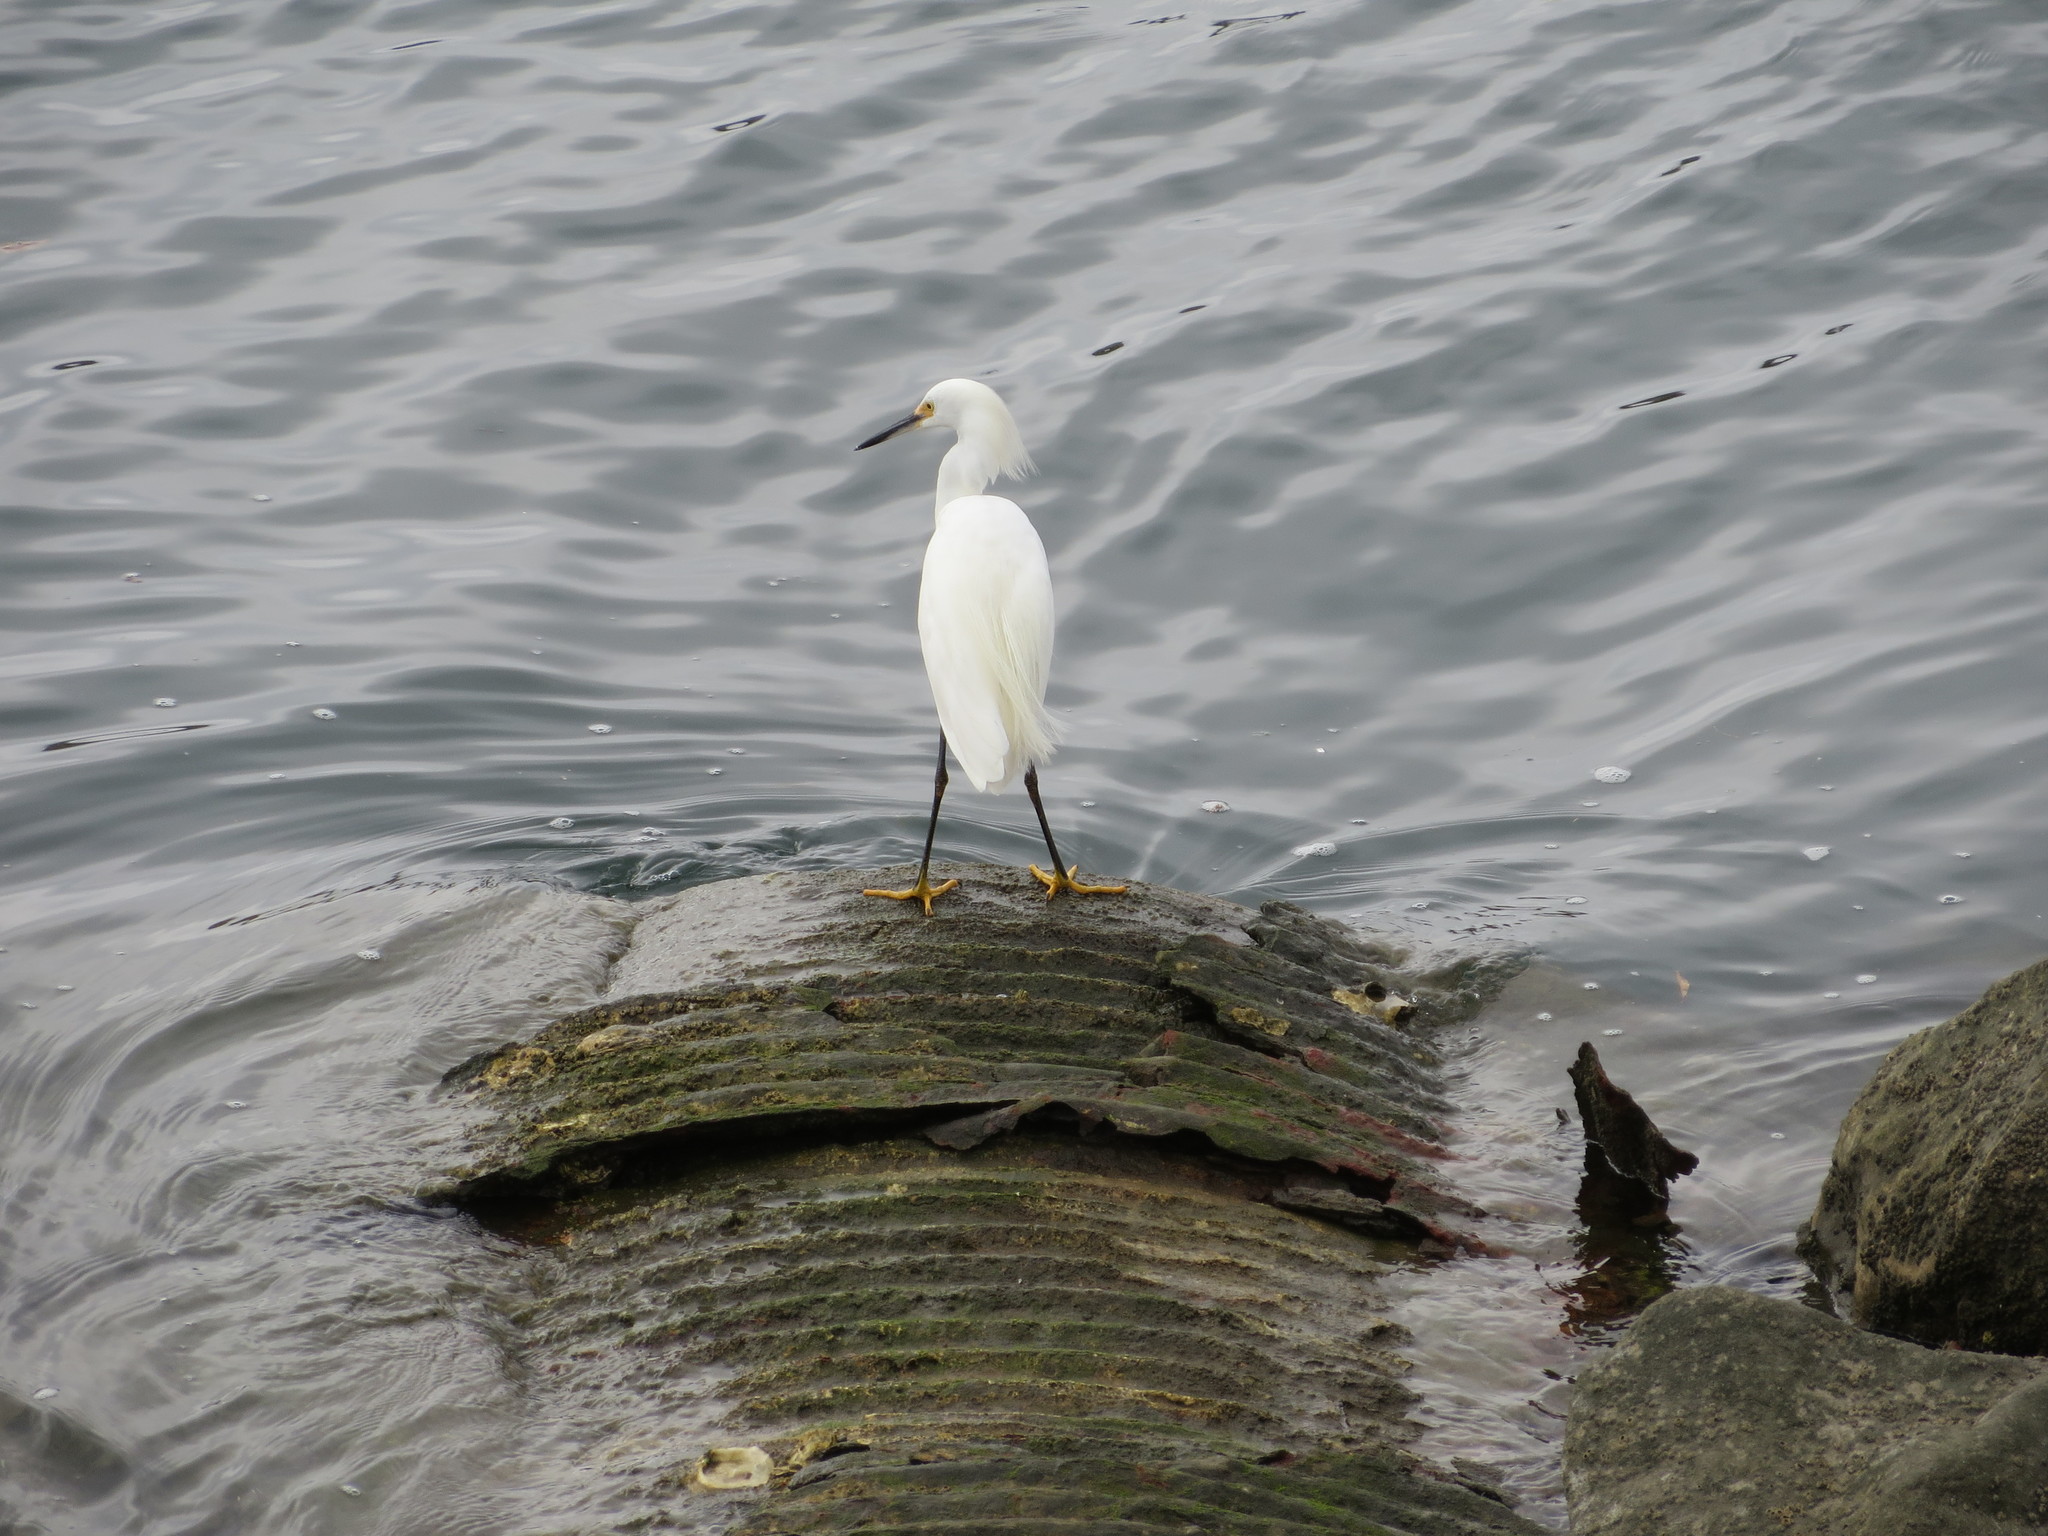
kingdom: Animalia
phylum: Chordata
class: Aves
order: Pelecaniformes
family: Ardeidae
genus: Egretta
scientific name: Egretta thula
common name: Snowy egret
